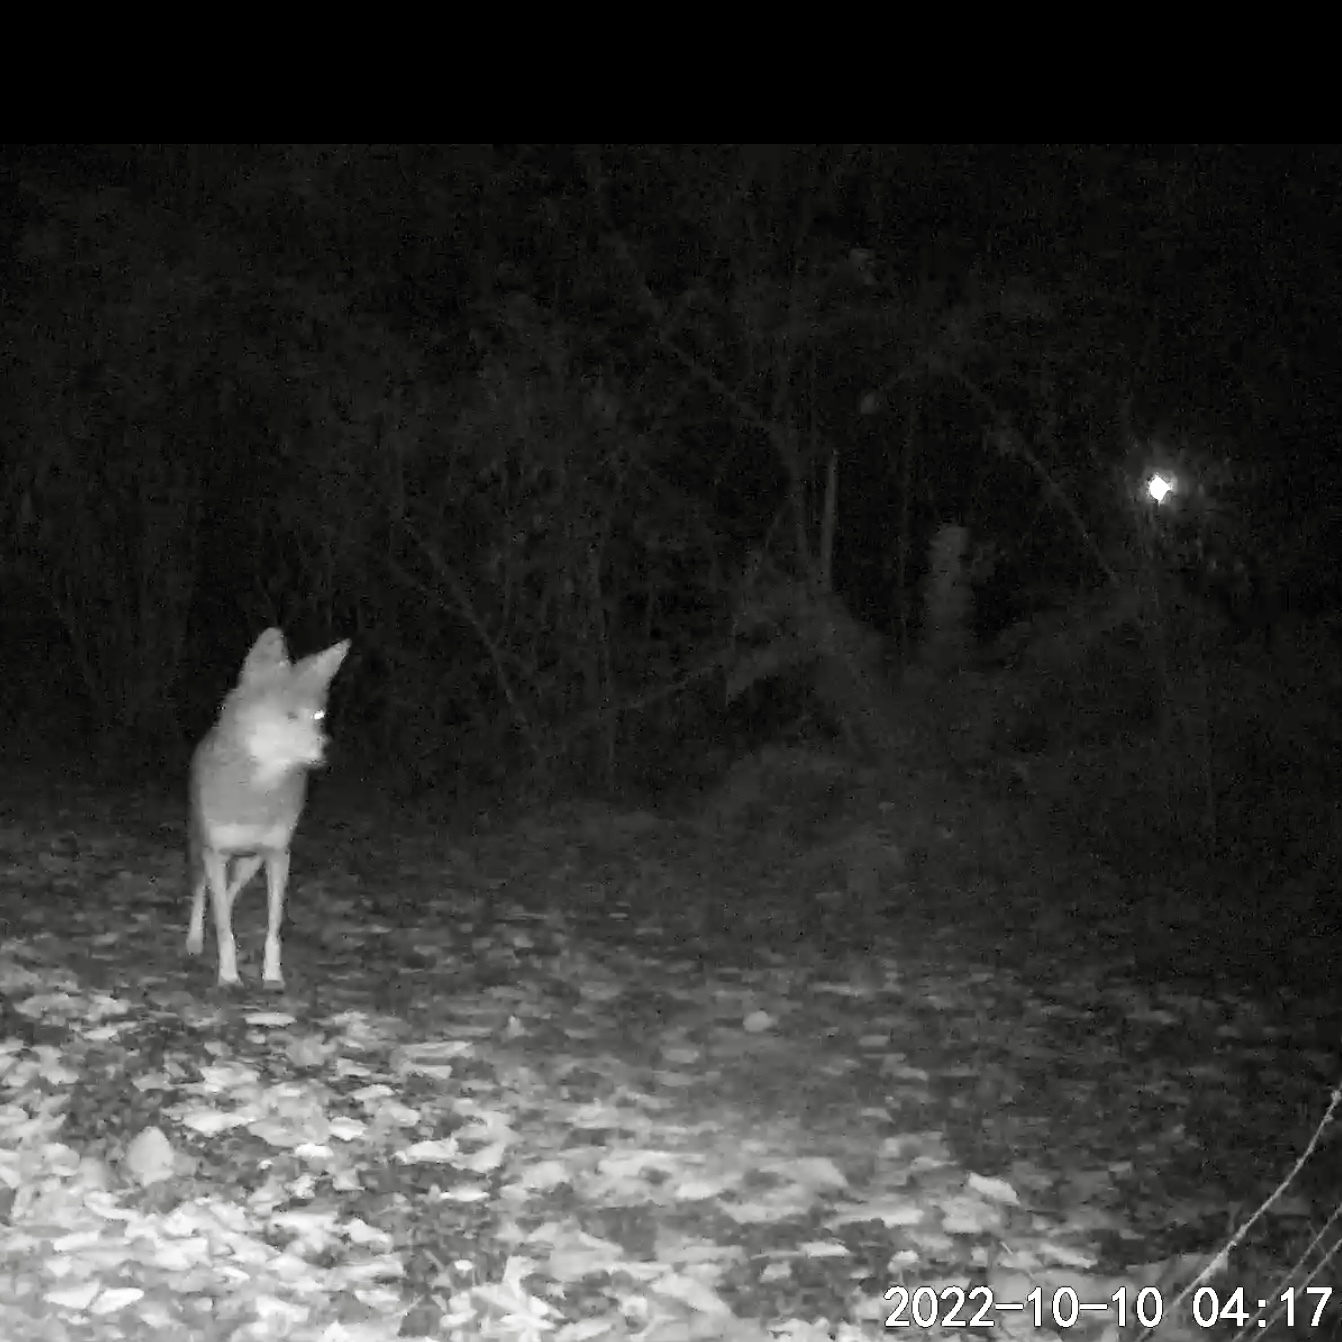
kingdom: Animalia
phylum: Chordata
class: Mammalia
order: Carnivora
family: Canidae
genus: Canis
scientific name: Canis latrans
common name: Coyote
